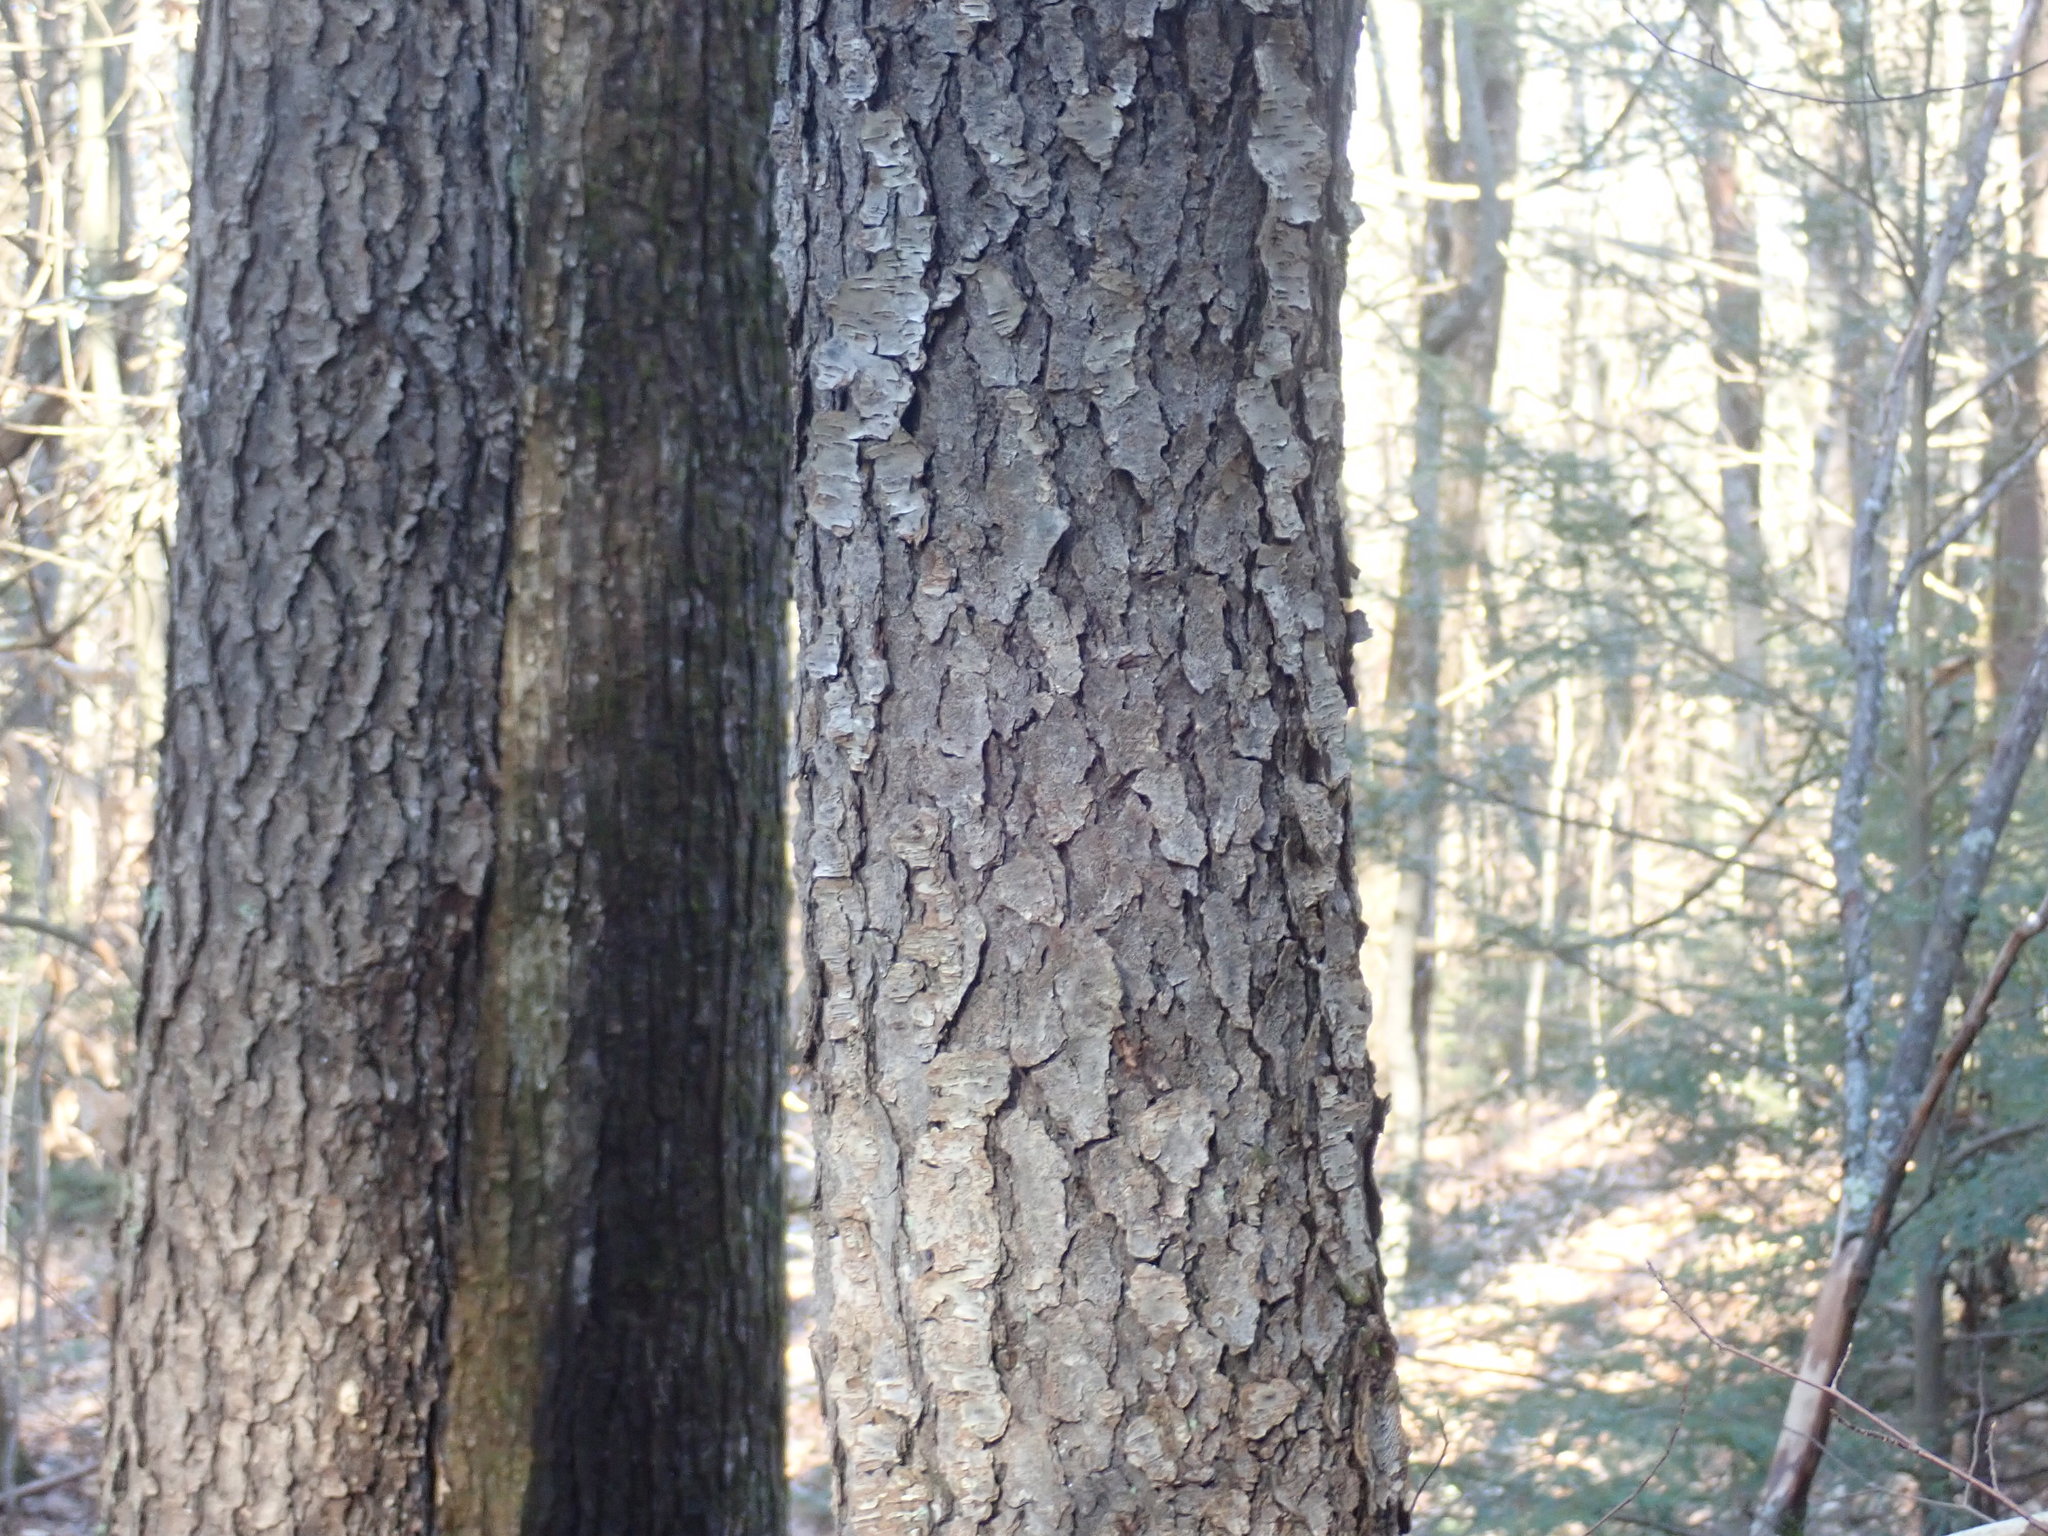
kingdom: Plantae
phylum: Tracheophyta
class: Magnoliopsida
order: Rosales
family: Rosaceae
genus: Prunus
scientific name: Prunus serotina
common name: Black cherry
